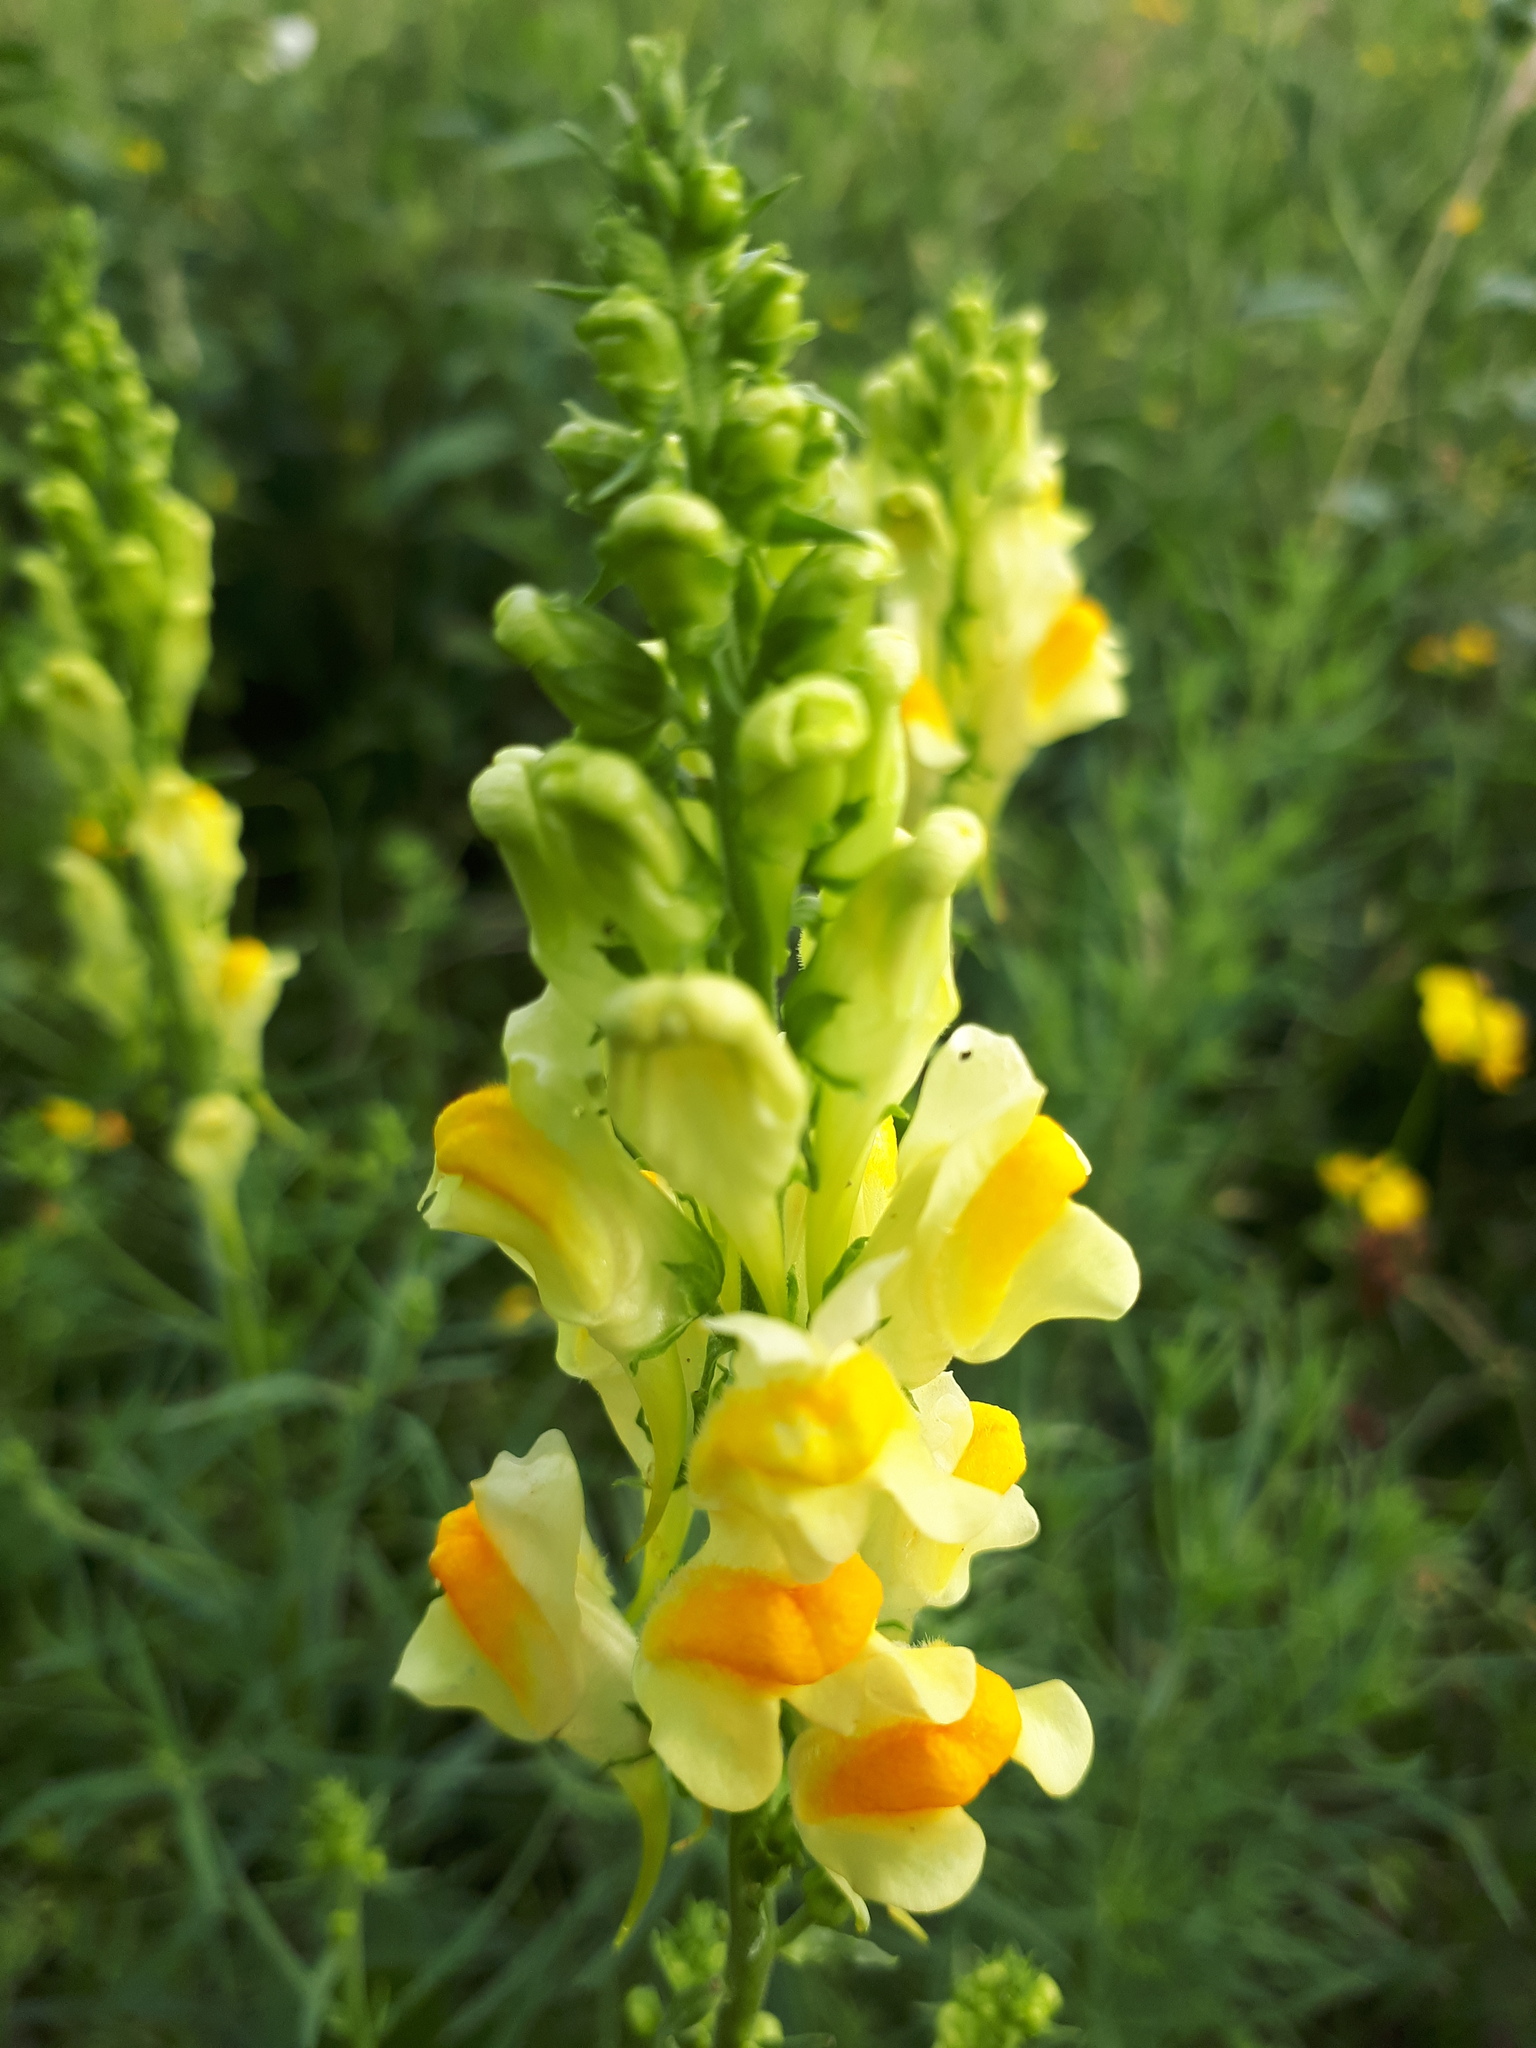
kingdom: Plantae
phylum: Tracheophyta
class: Magnoliopsida
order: Lamiales
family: Plantaginaceae
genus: Linaria
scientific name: Linaria vulgaris
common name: Butter and eggs
